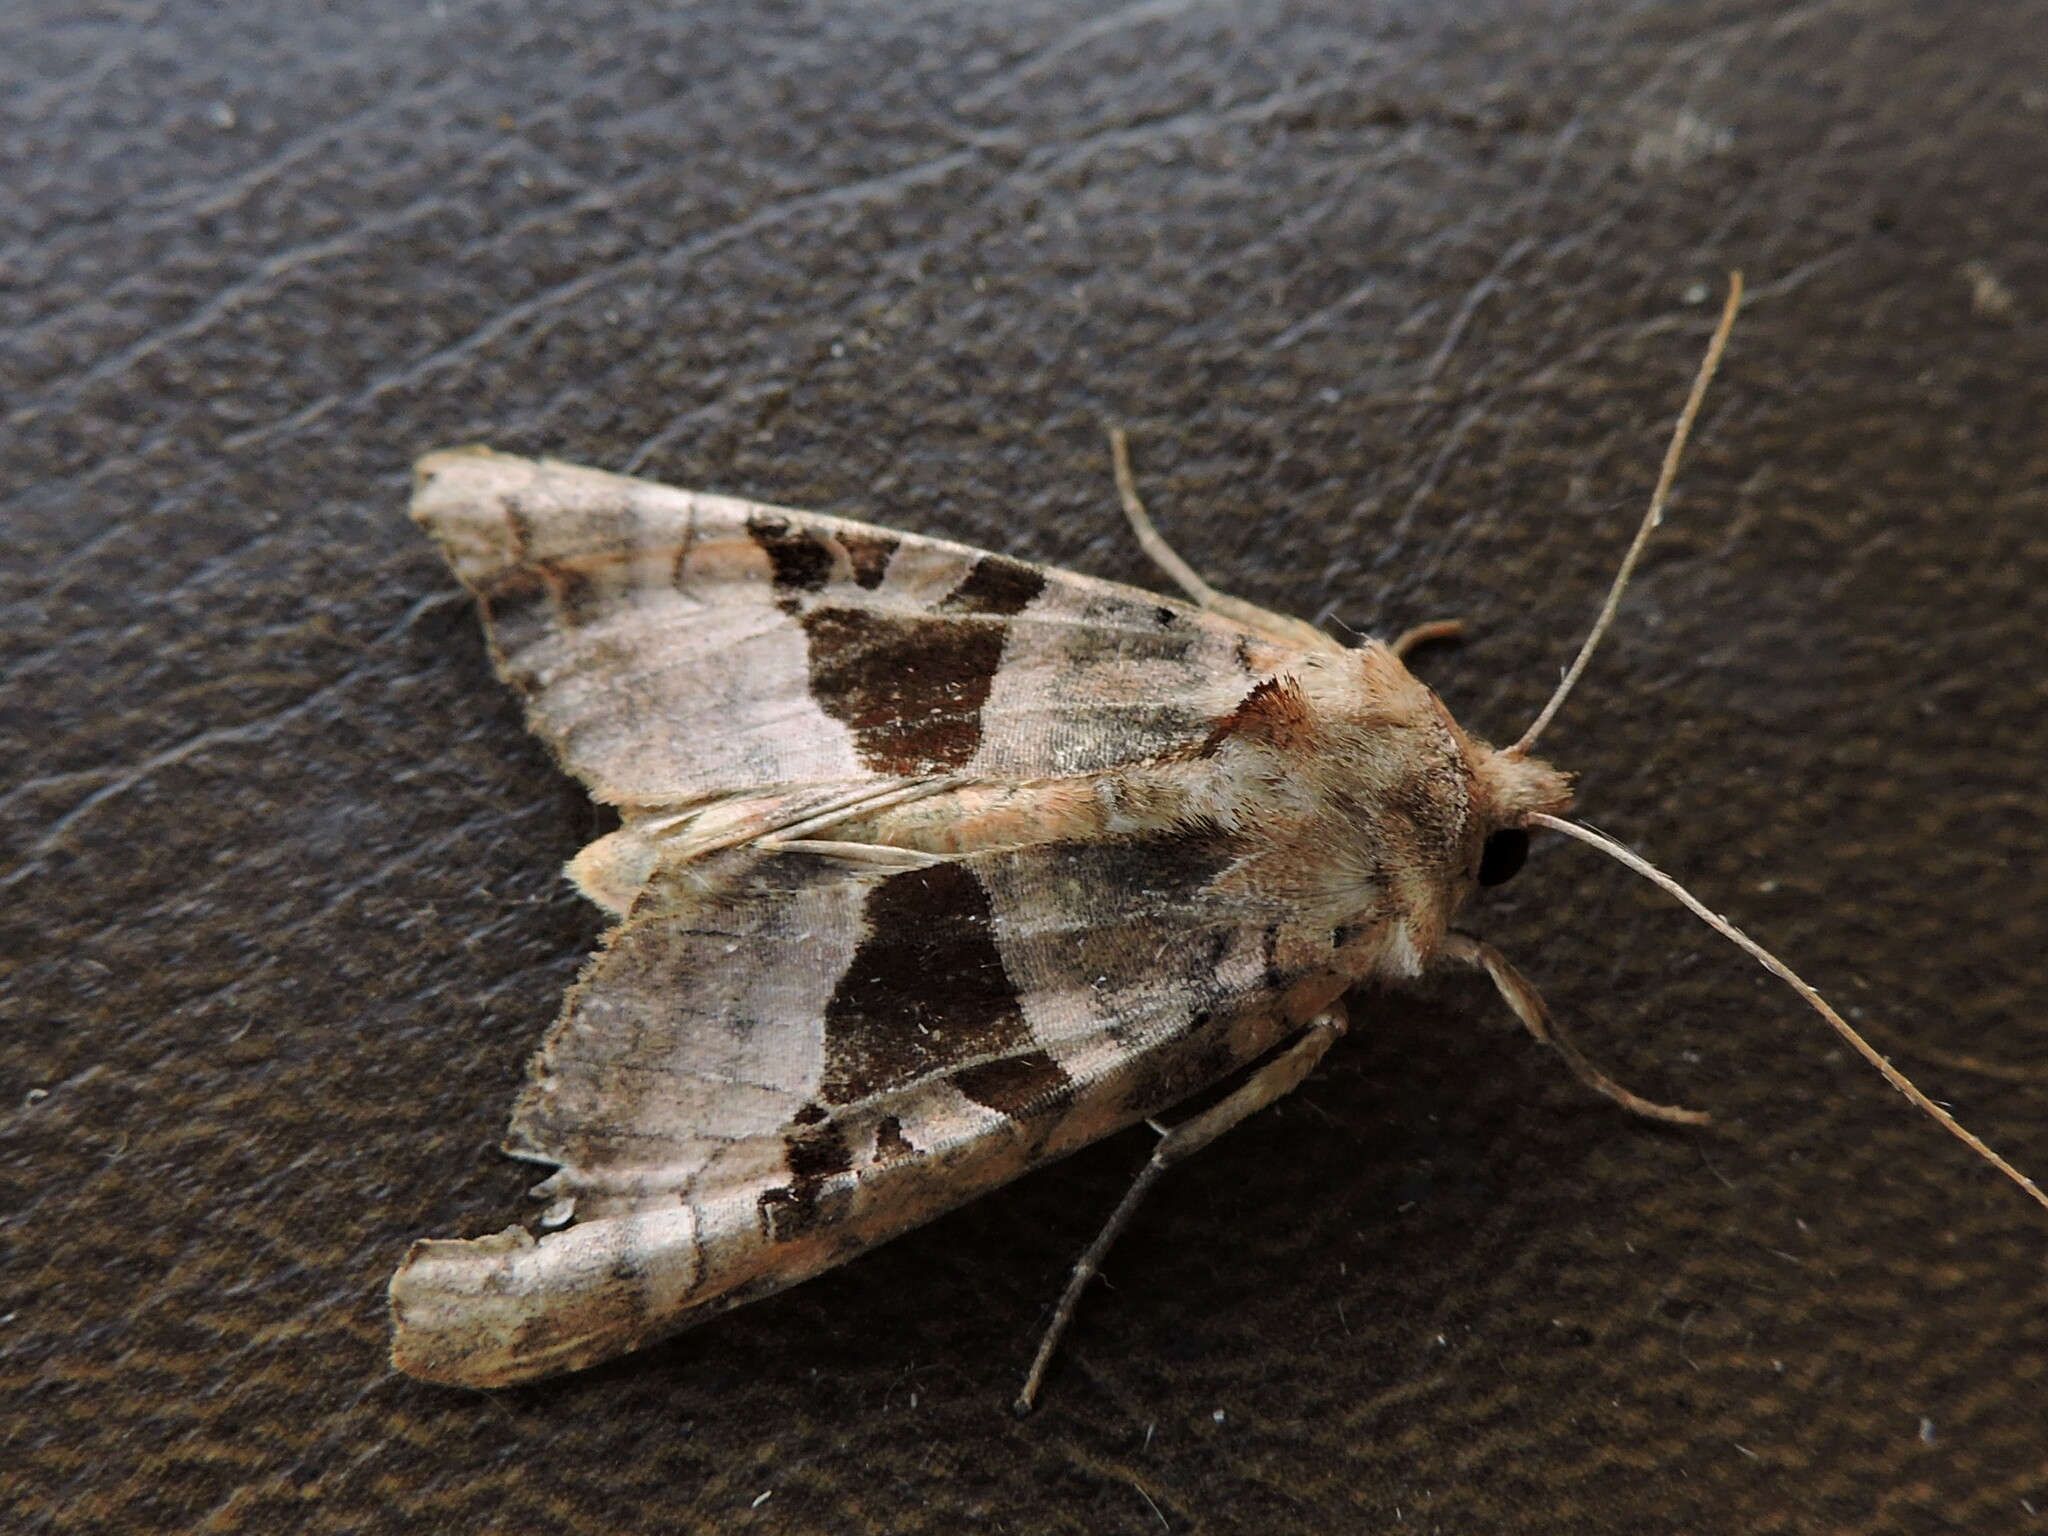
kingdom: Animalia
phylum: Arthropoda
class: Insecta
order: Lepidoptera
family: Noctuidae
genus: Phlogophora
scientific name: Phlogophora periculosa
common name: Brown angle shades
